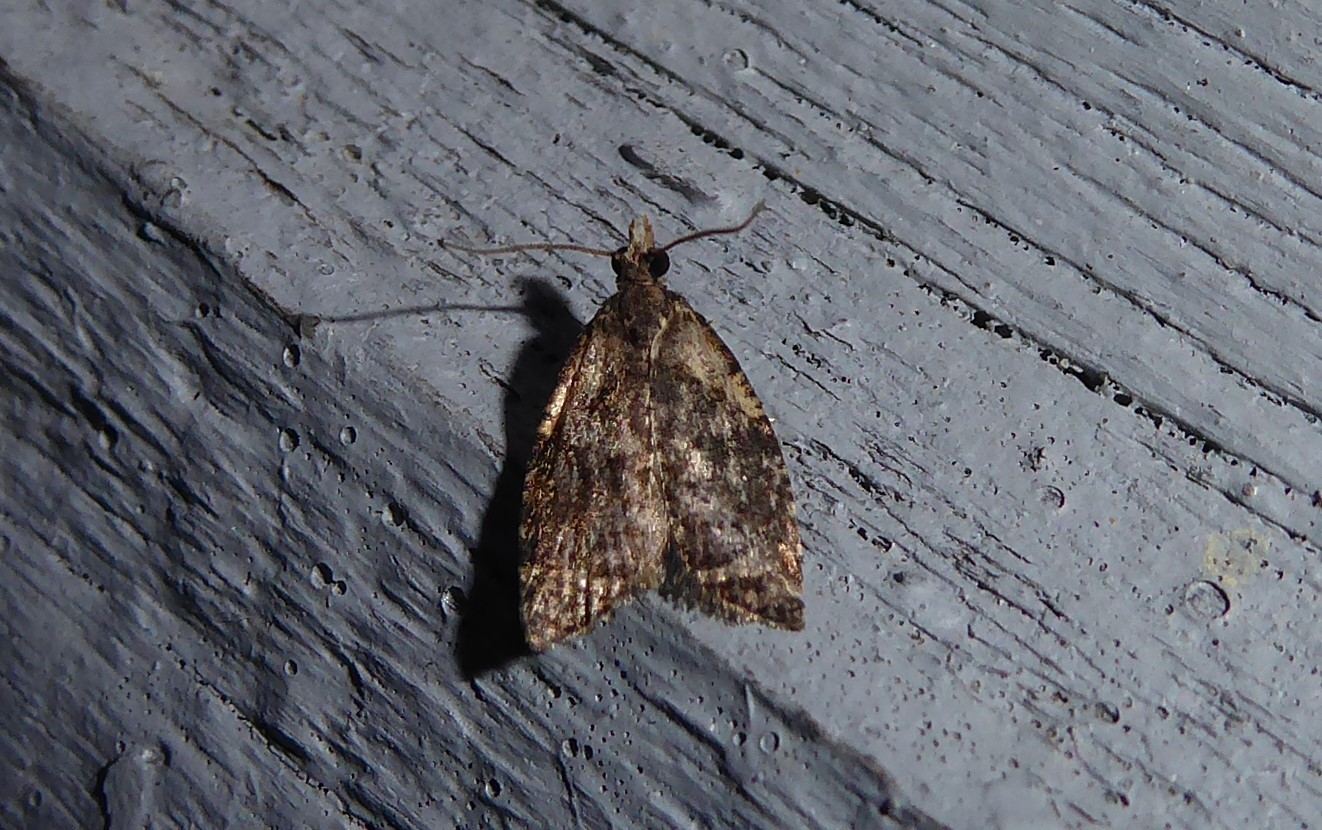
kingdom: Animalia
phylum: Arthropoda
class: Insecta
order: Lepidoptera
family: Tortricidae
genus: Capua
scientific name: Capua intractana
